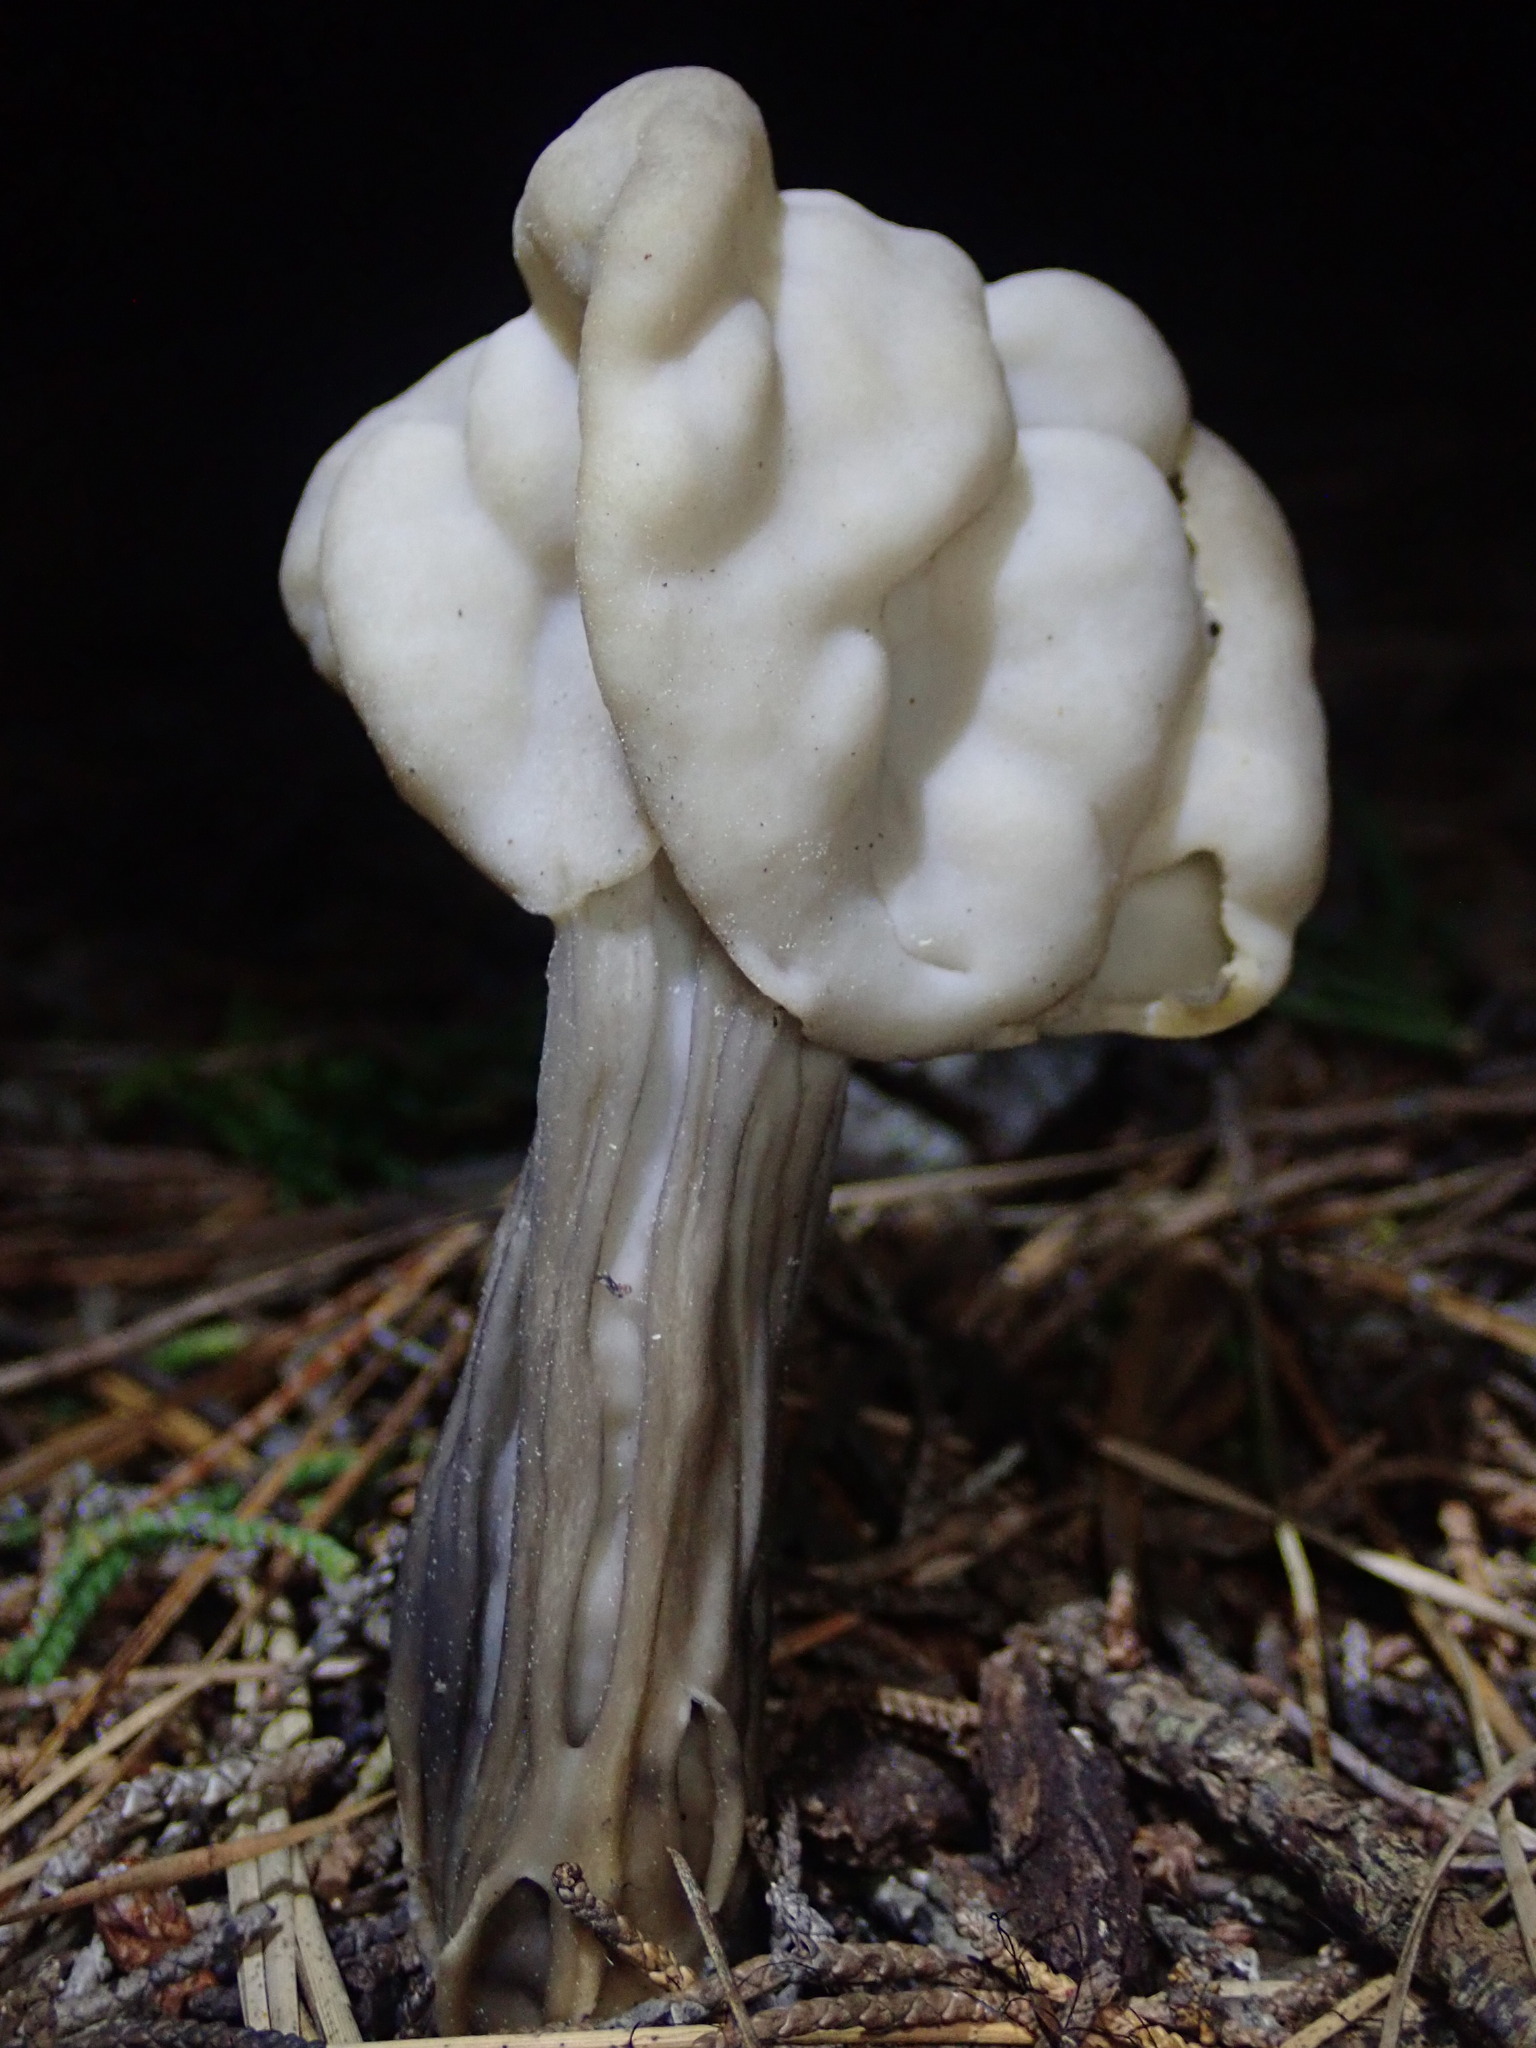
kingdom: Fungi
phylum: Ascomycota
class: Pezizomycetes
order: Pezizales
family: Helvellaceae
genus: Helvella
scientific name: Helvella vespertina
